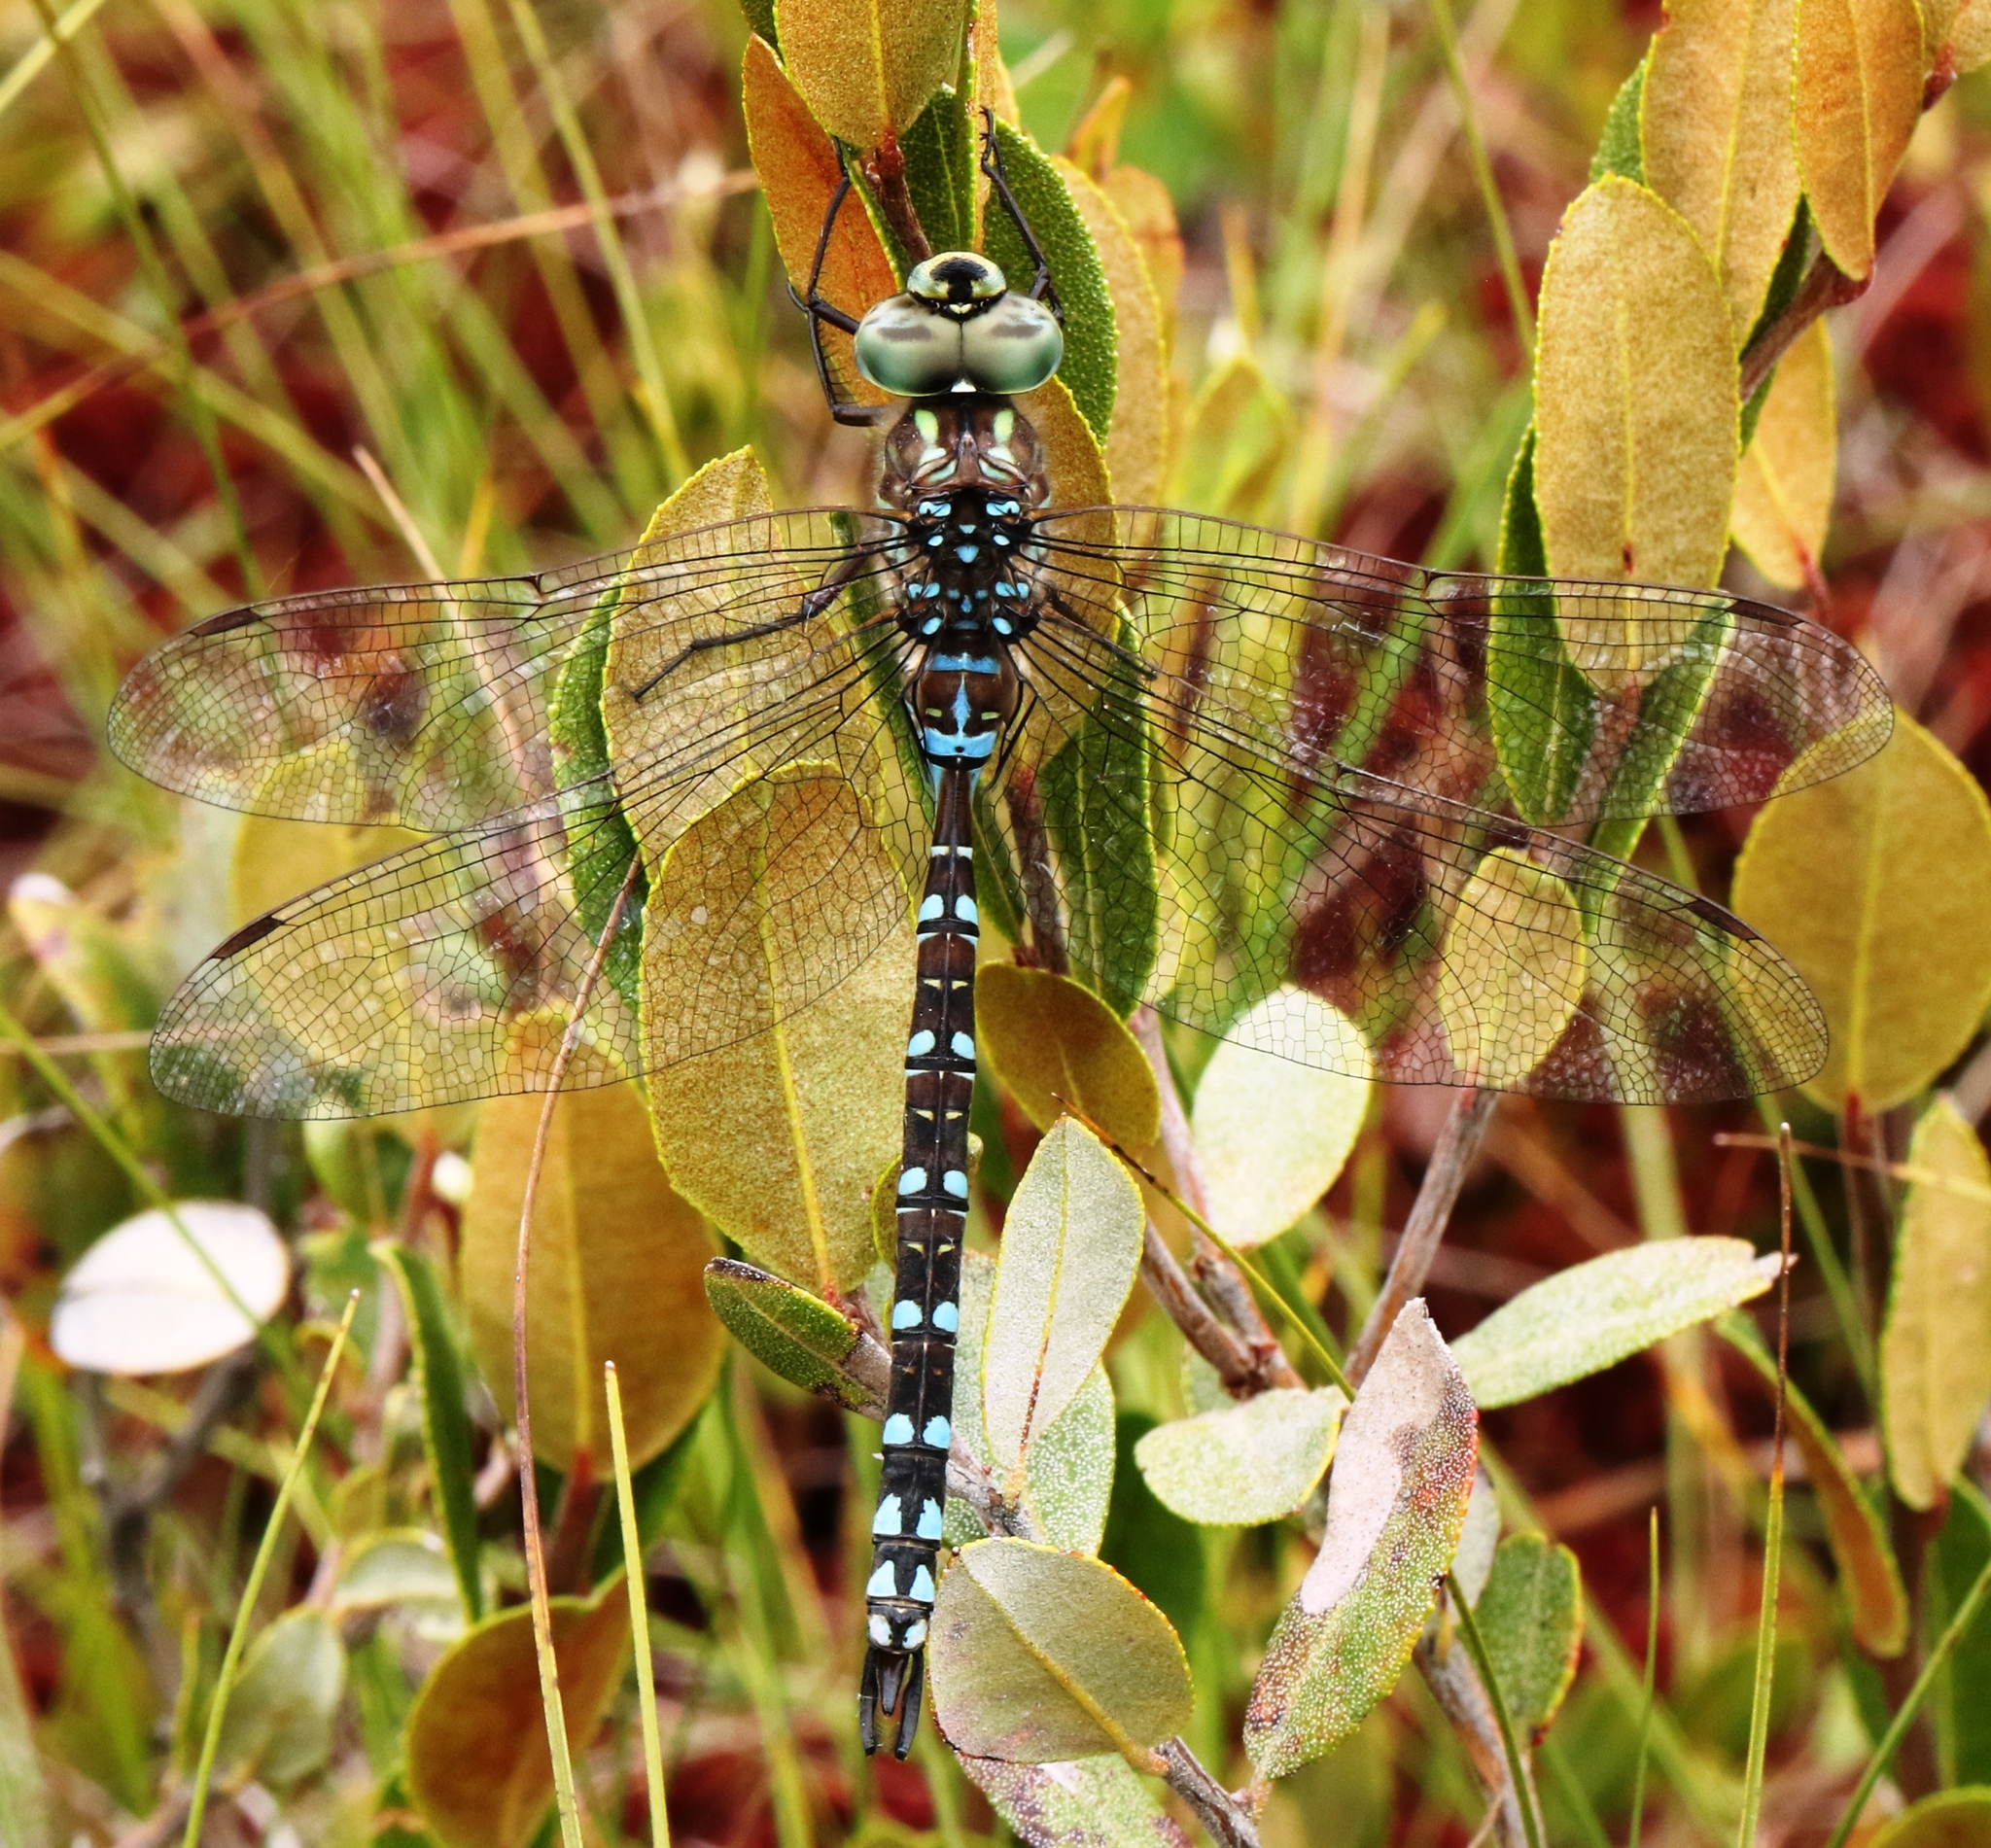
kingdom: Animalia
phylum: Arthropoda
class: Insecta
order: Odonata
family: Aeshnidae
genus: Aeshna
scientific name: Aeshna canadensis
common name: Canada darner
